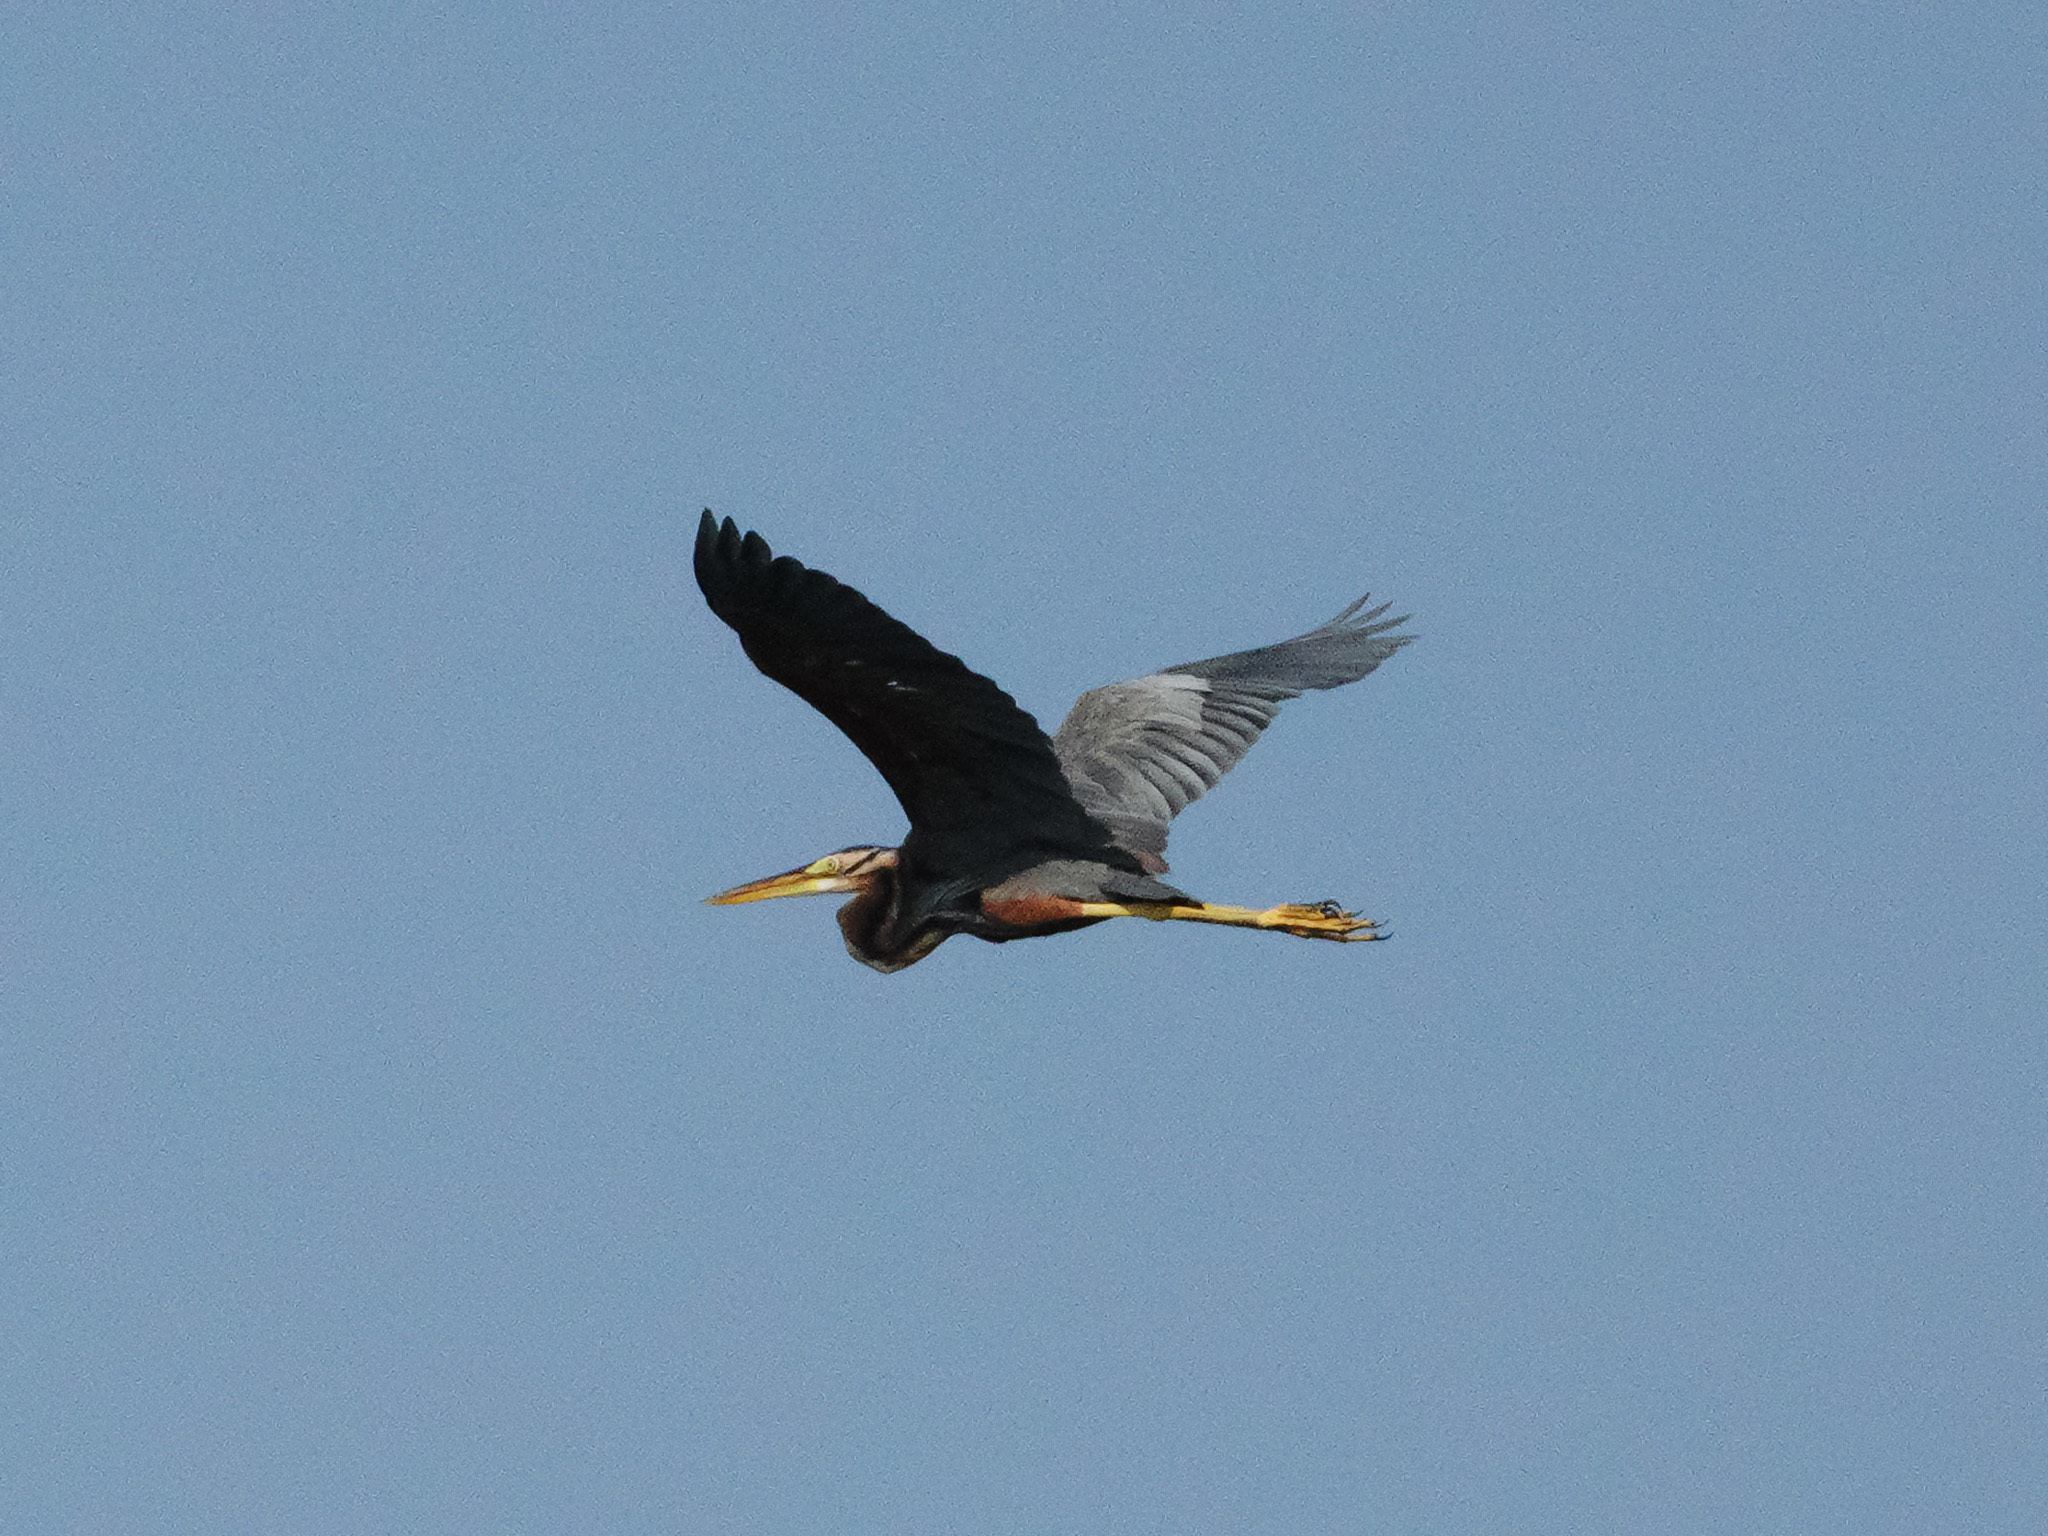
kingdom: Animalia
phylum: Chordata
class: Aves
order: Pelecaniformes
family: Ardeidae
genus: Ardea
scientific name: Ardea purpurea
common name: Purple heron
